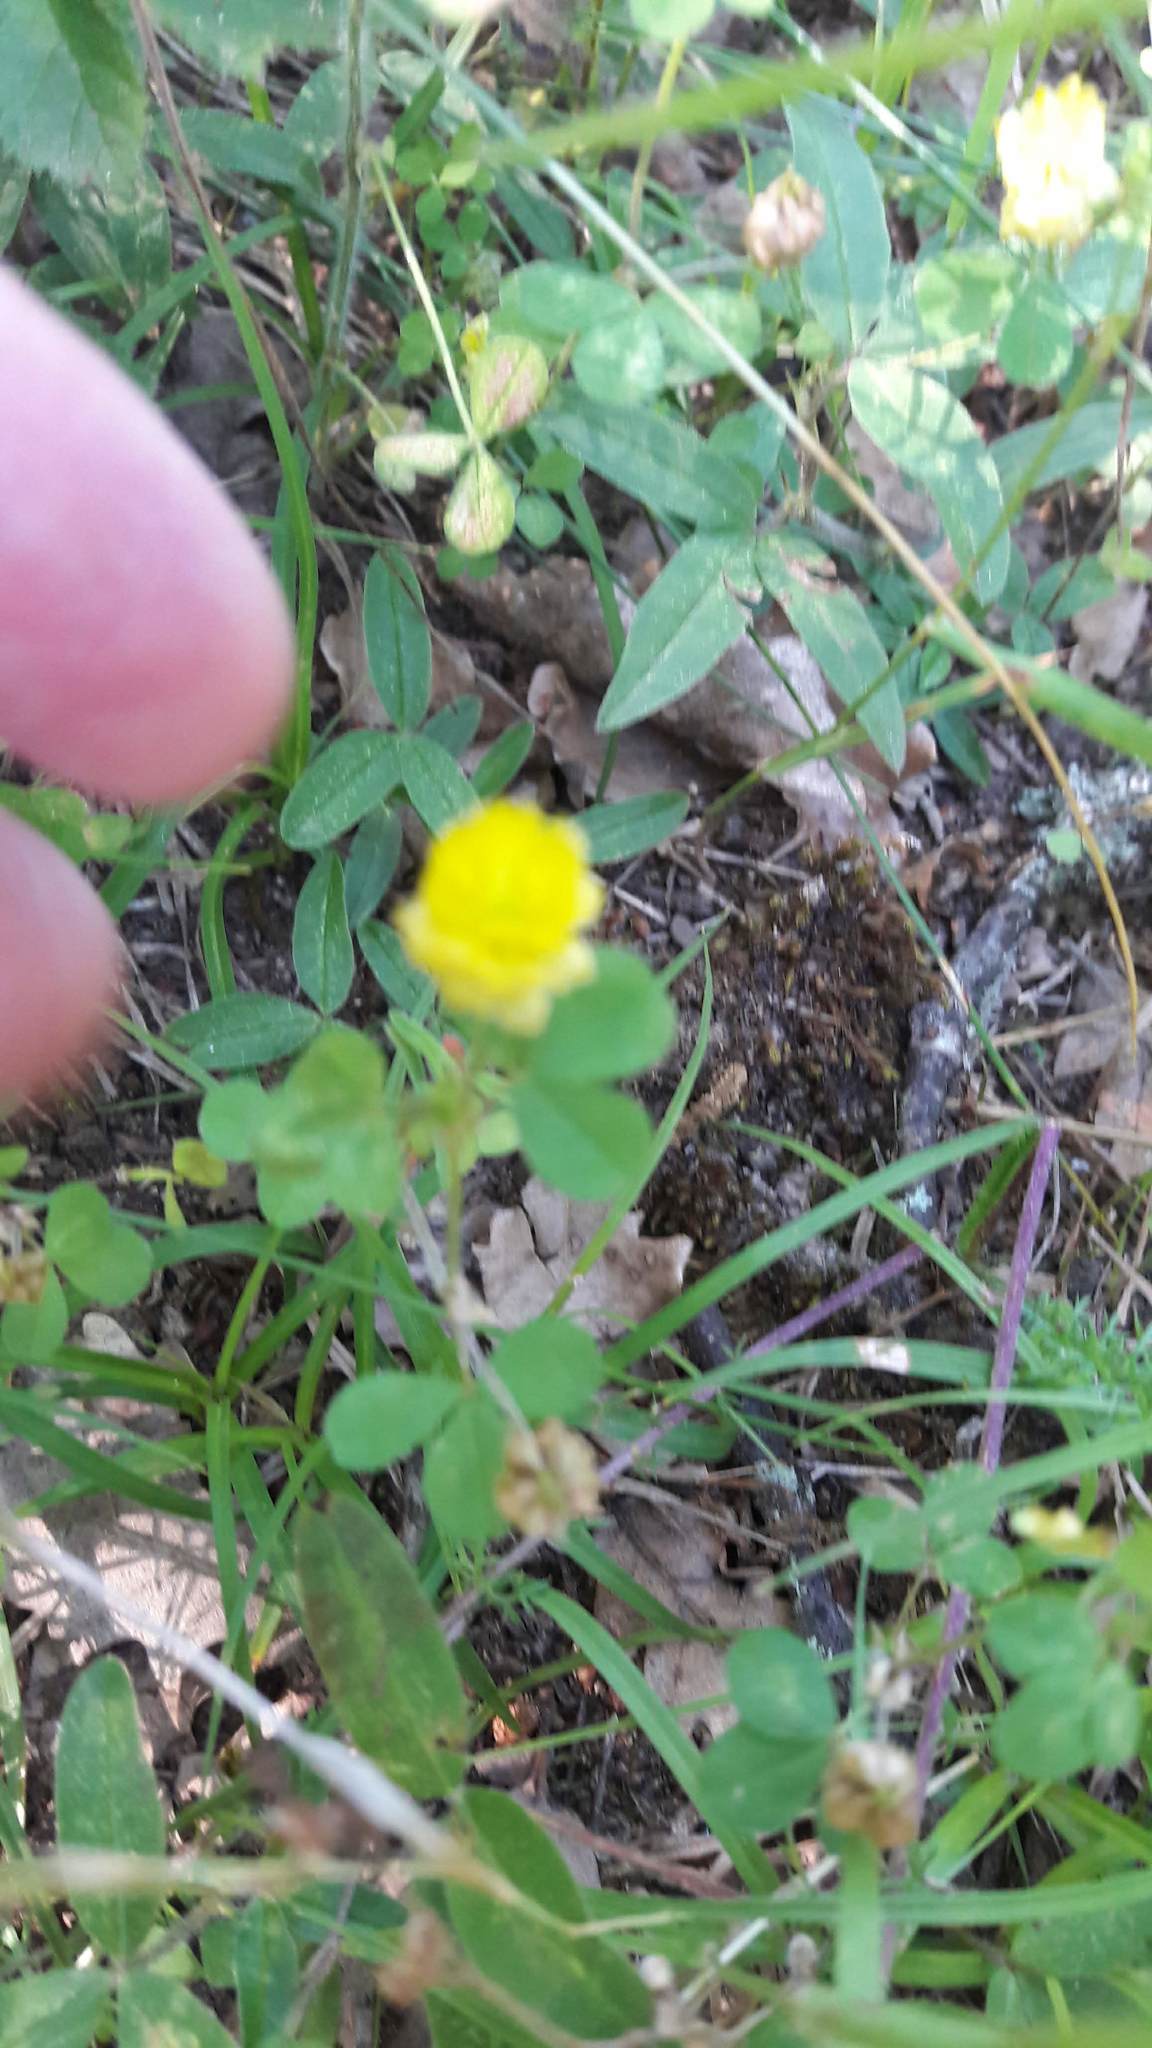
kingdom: Plantae
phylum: Tracheophyta
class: Magnoliopsida
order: Fabales
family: Fabaceae
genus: Trifolium
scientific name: Trifolium campestre
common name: Field clover
